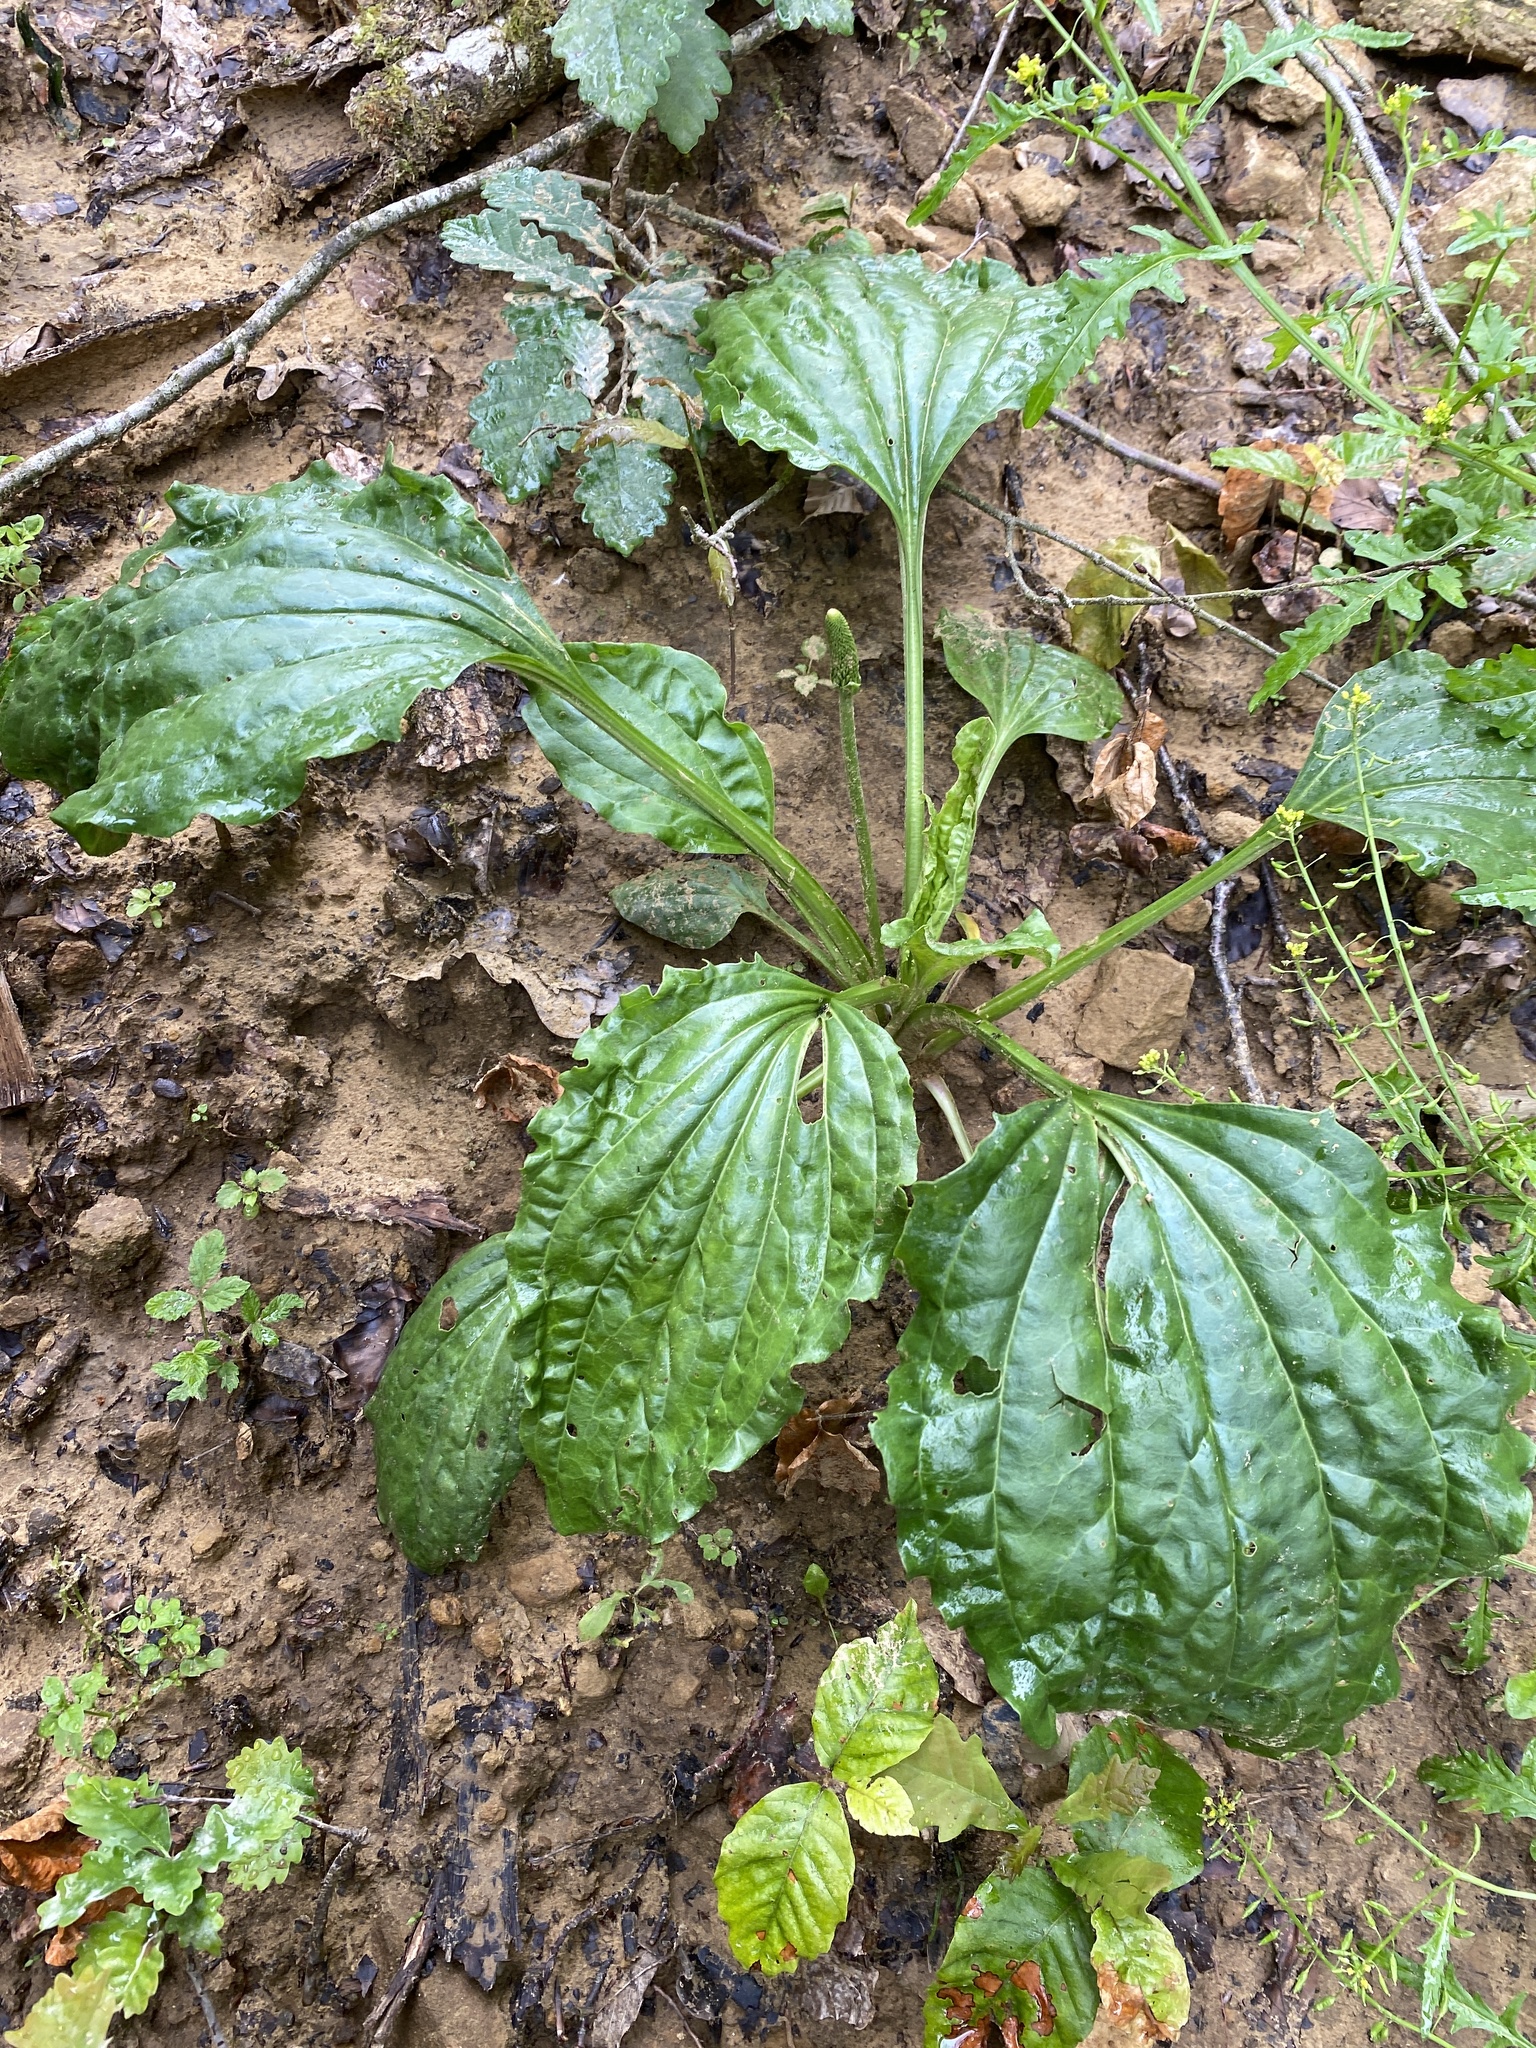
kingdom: Plantae
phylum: Tracheophyta
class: Magnoliopsida
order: Lamiales
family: Plantaginaceae
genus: Plantago
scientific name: Plantago major
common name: Common plantain
